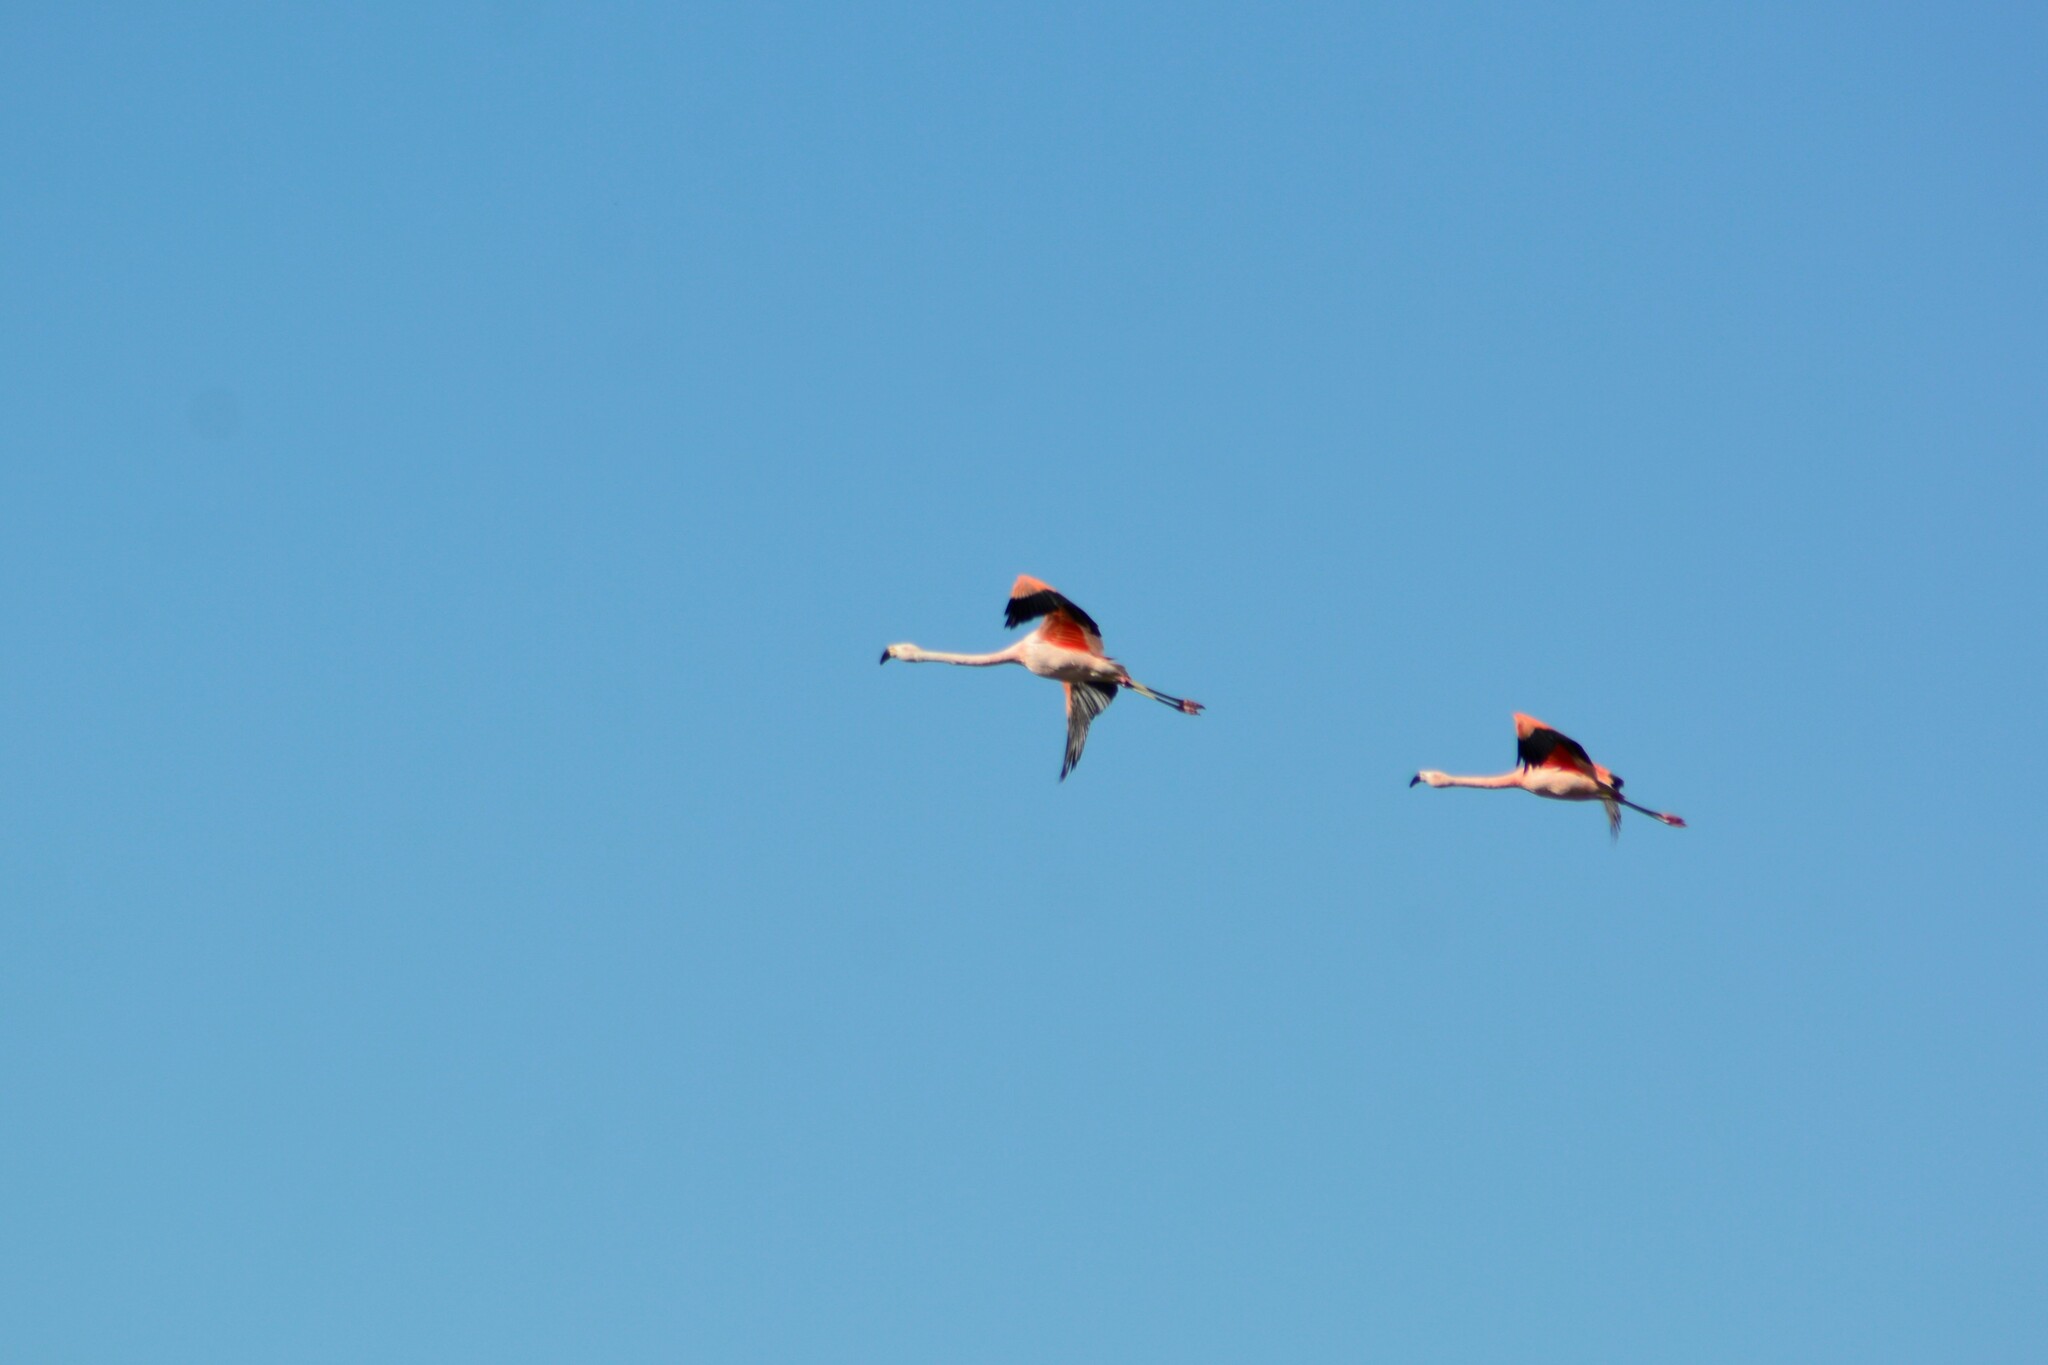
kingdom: Animalia
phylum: Chordata
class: Aves
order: Phoenicopteriformes
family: Phoenicopteridae
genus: Phoenicopterus
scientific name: Phoenicopterus chilensis
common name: Chilean flamingo
